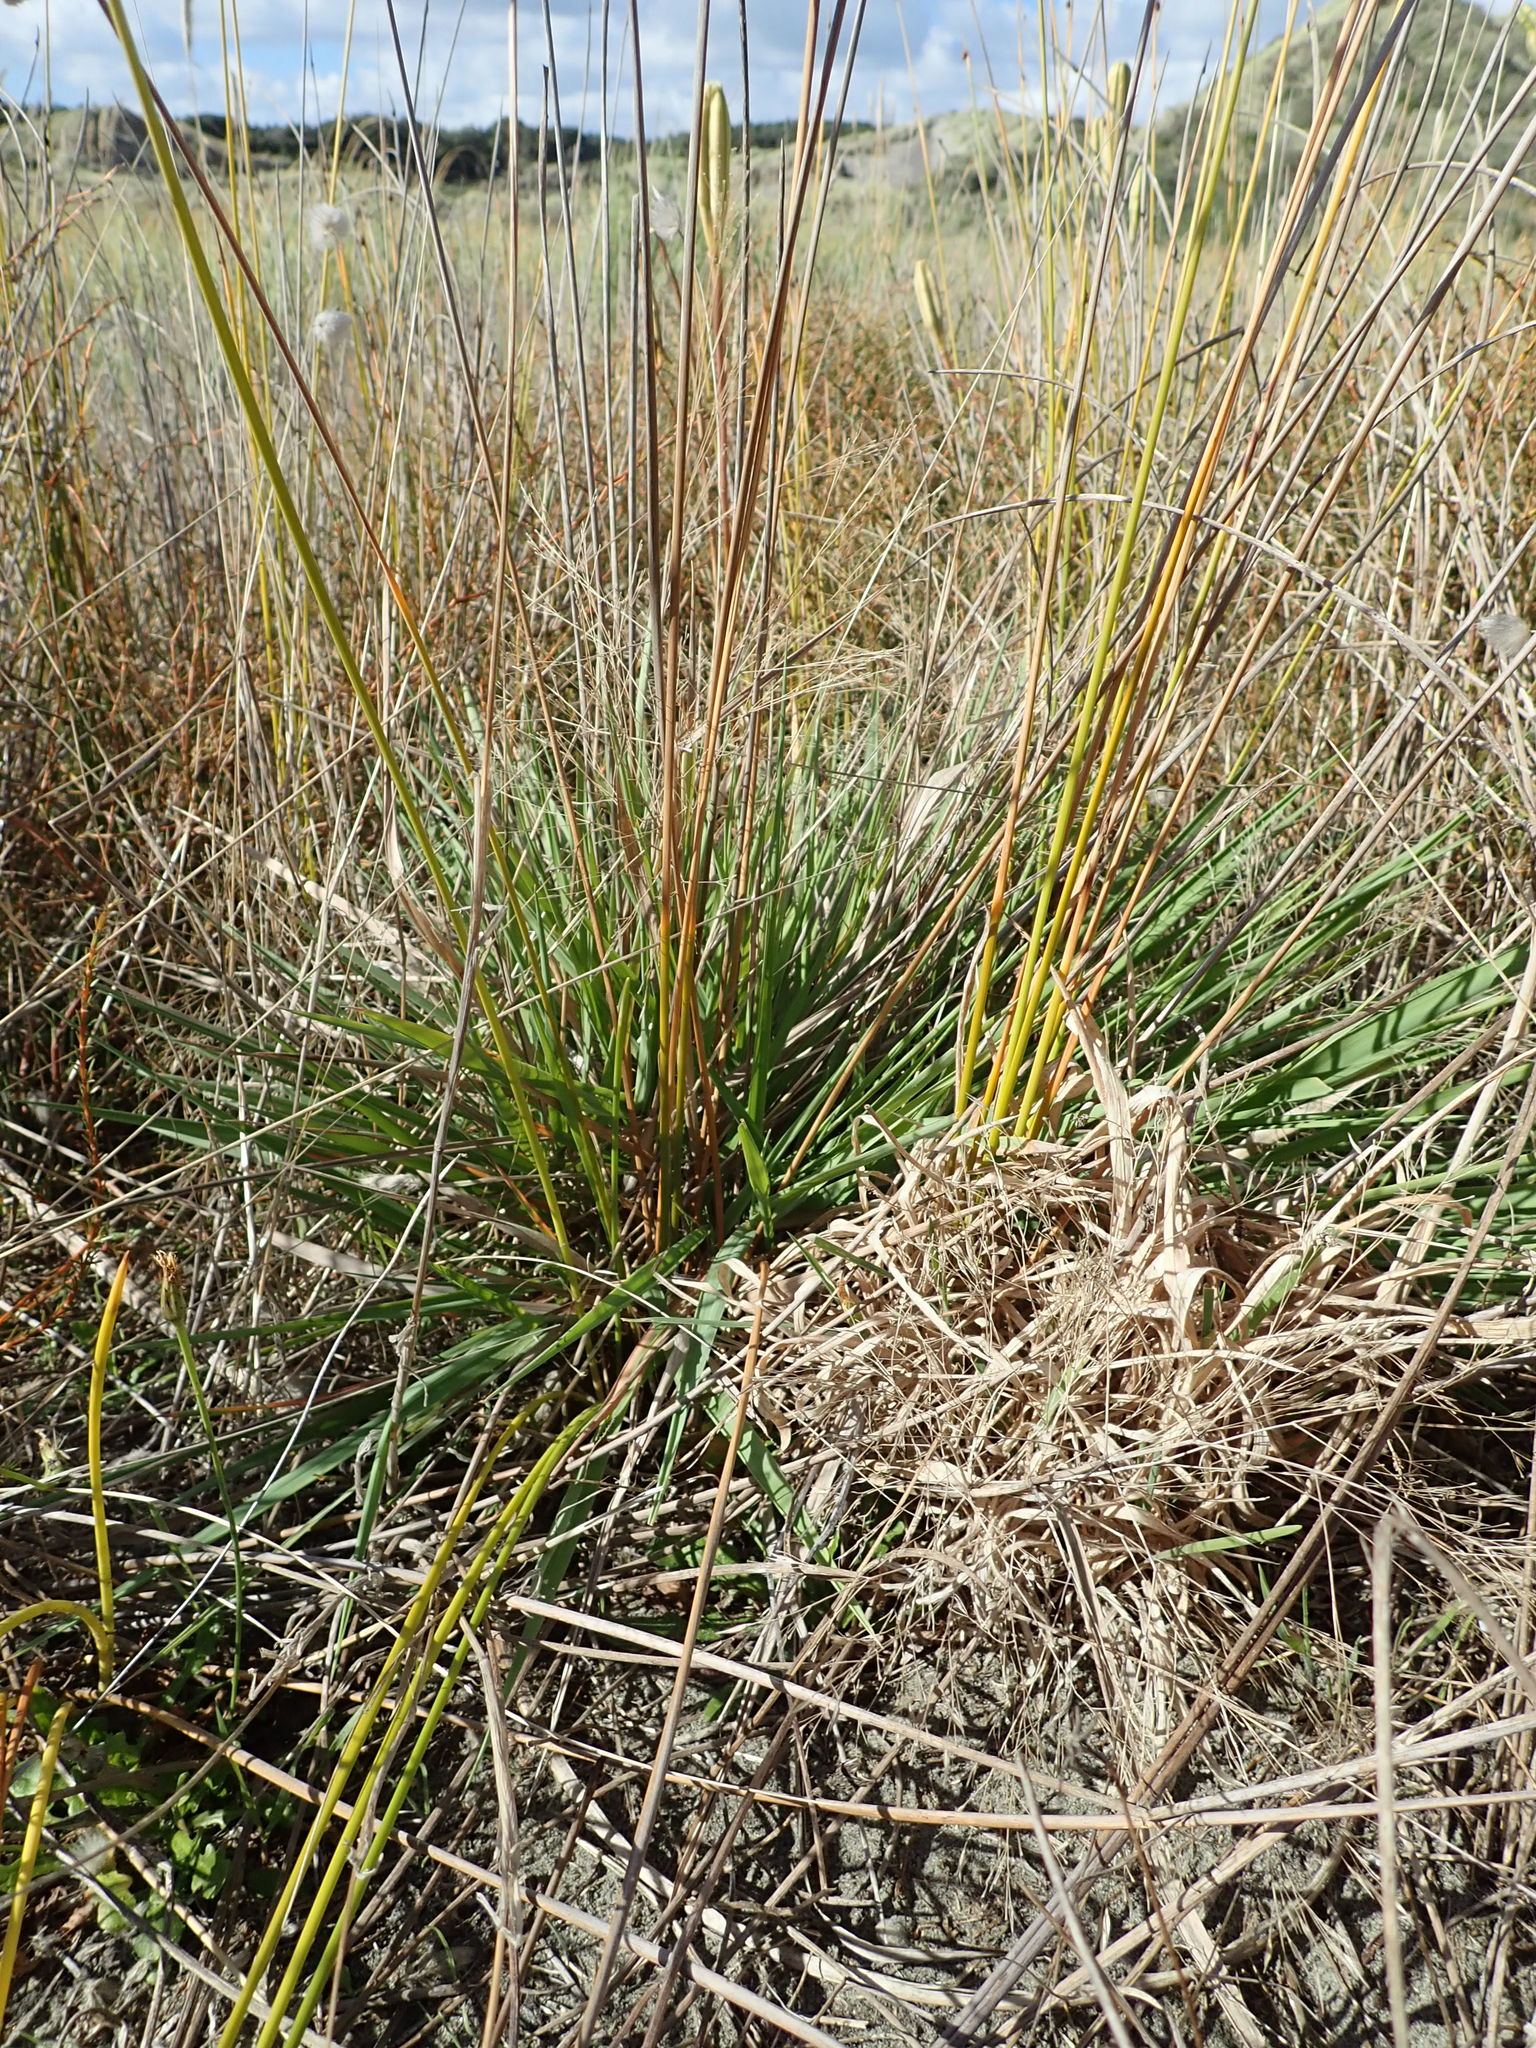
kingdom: Plantae
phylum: Tracheophyta
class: Liliopsida
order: Poales
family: Poaceae
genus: Lachnagrostis
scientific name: Lachnagrostis billardierei
